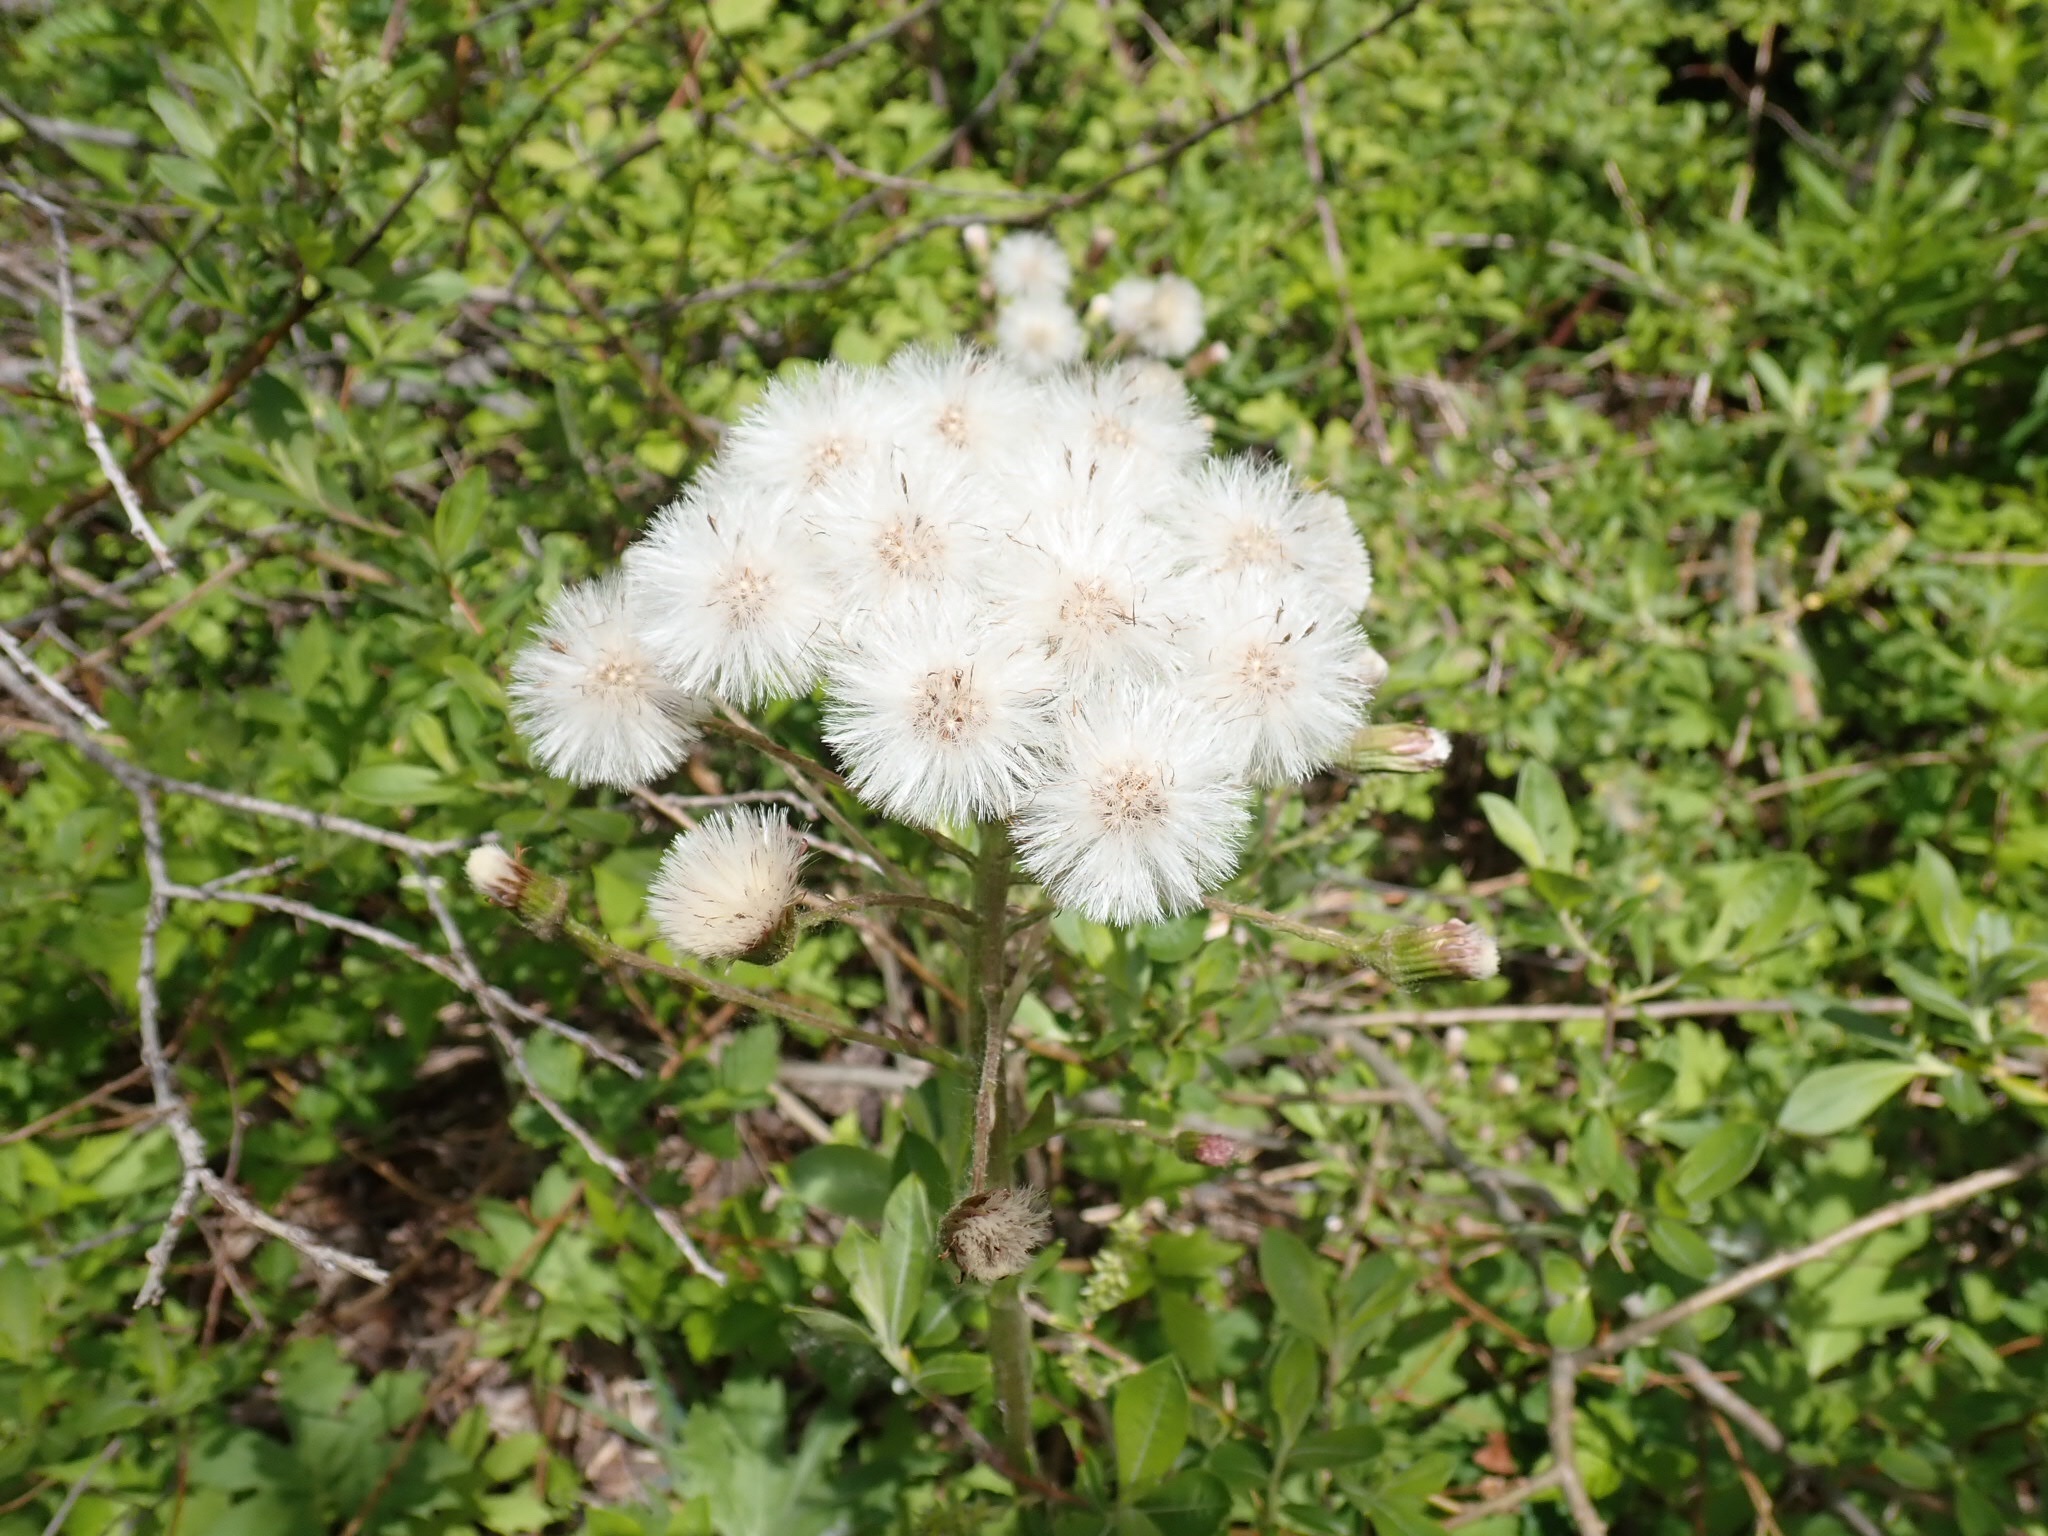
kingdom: Plantae
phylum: Tracheophyta
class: Magnoliopsida
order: Asterales
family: Asteraceae
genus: Petasites
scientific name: Petasites frigidus
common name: Arctic butterbur
